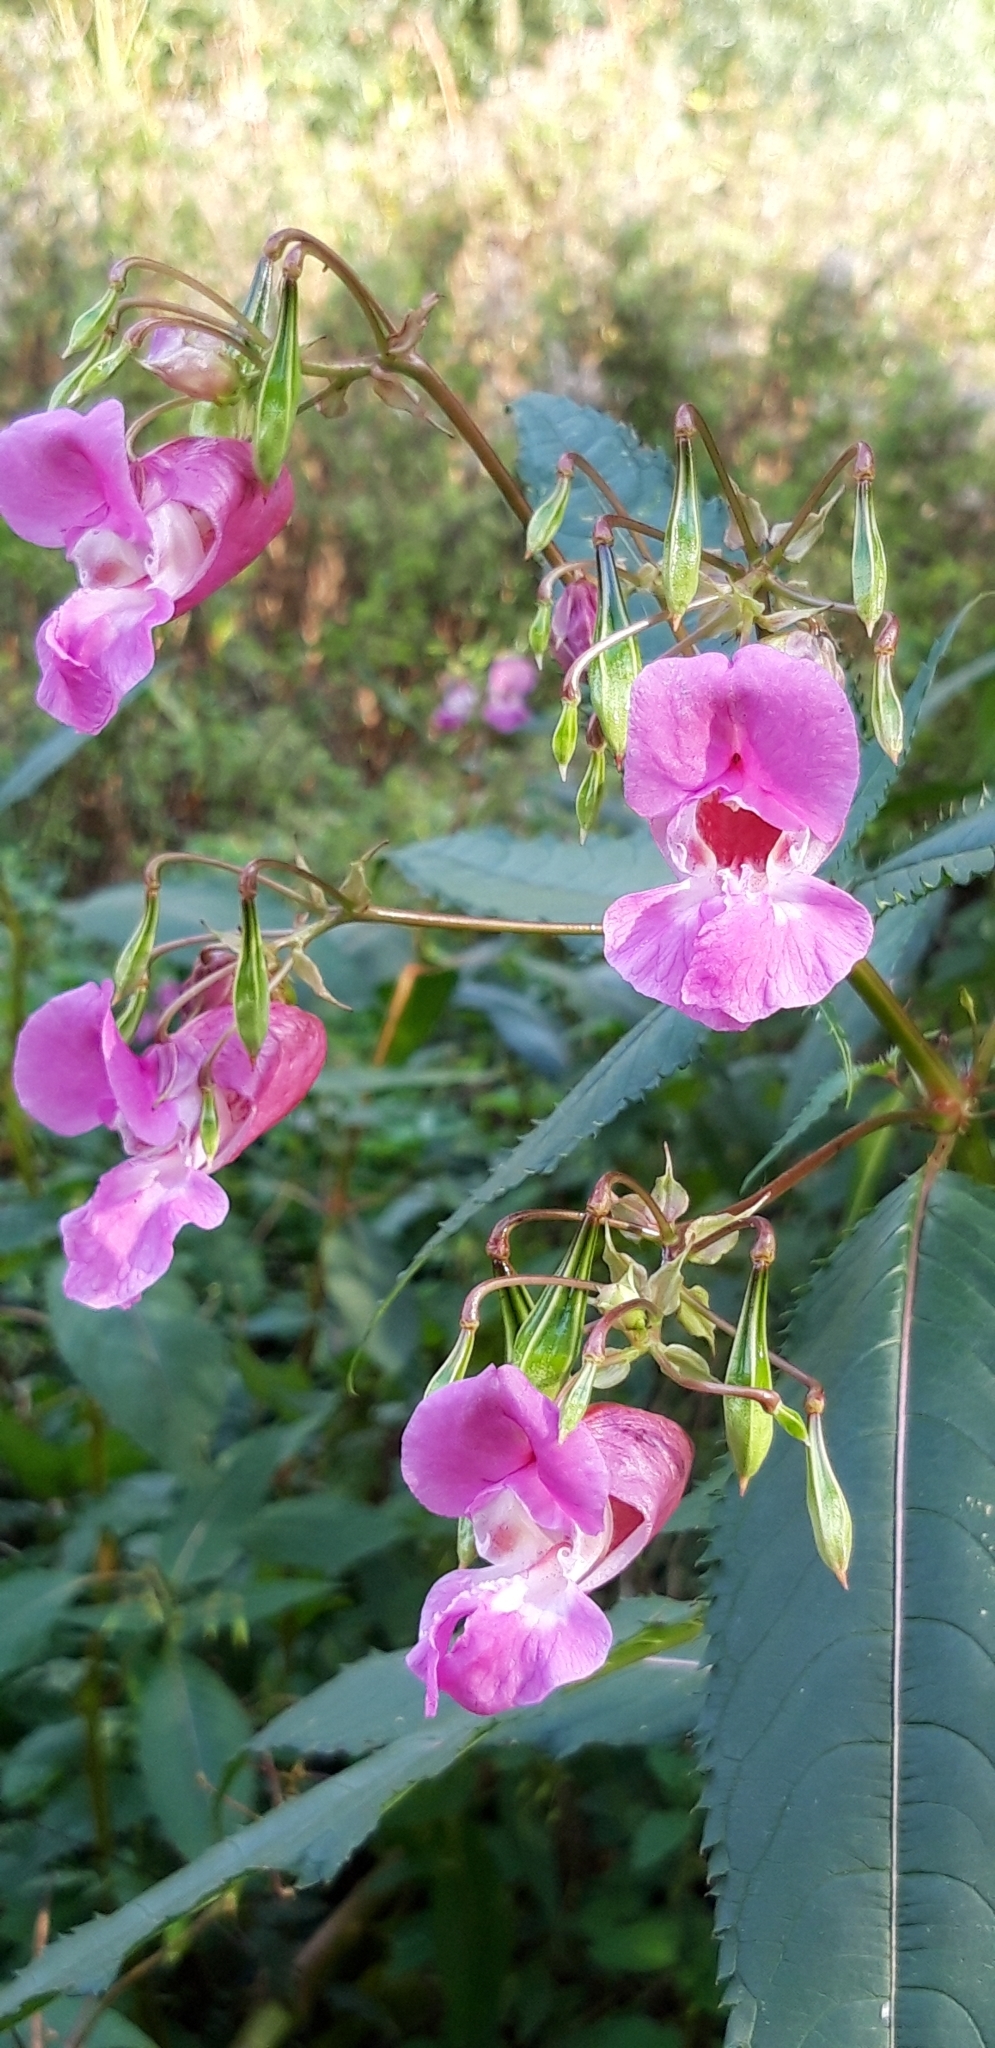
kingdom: Plantae
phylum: Tracheophyta
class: Magnoliopsida
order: Ericales
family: Balsaminaceae
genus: Impatiens
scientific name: Impatiens glandulifera
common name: Himalayan balsam
